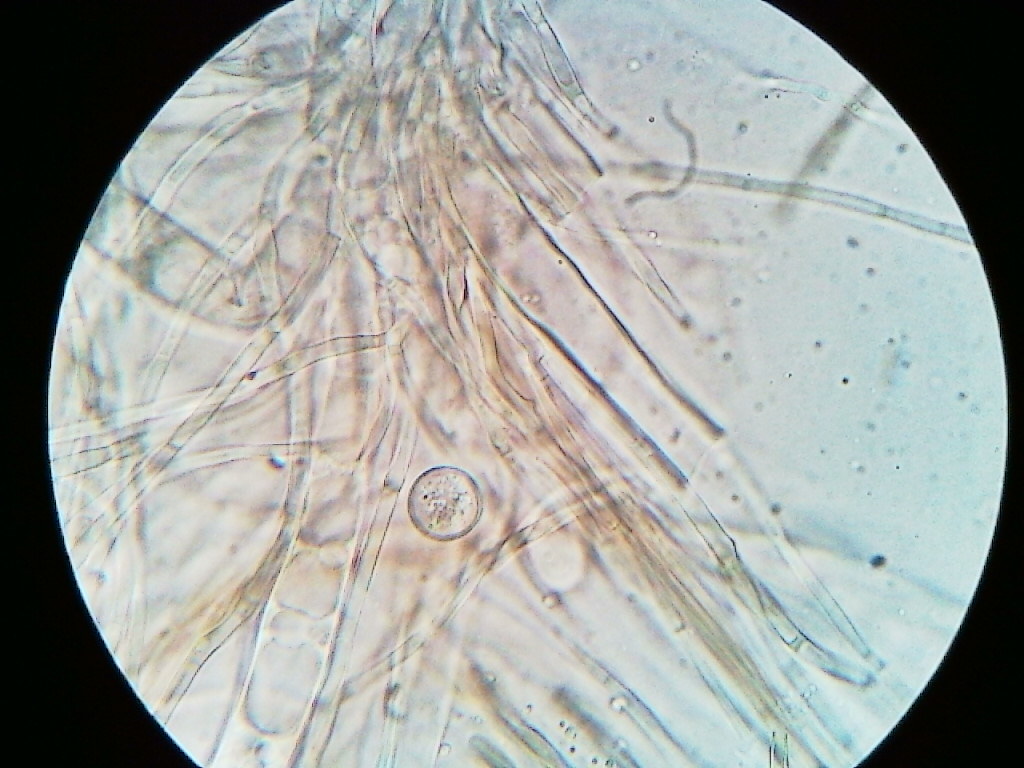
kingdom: Fungi
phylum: Ascomycota
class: Pezizomycetes
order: Pezizales
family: Sarcosomataceae
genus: Pseudoplectania
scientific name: Pseudoplectania nigrella
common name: Ebony cup
